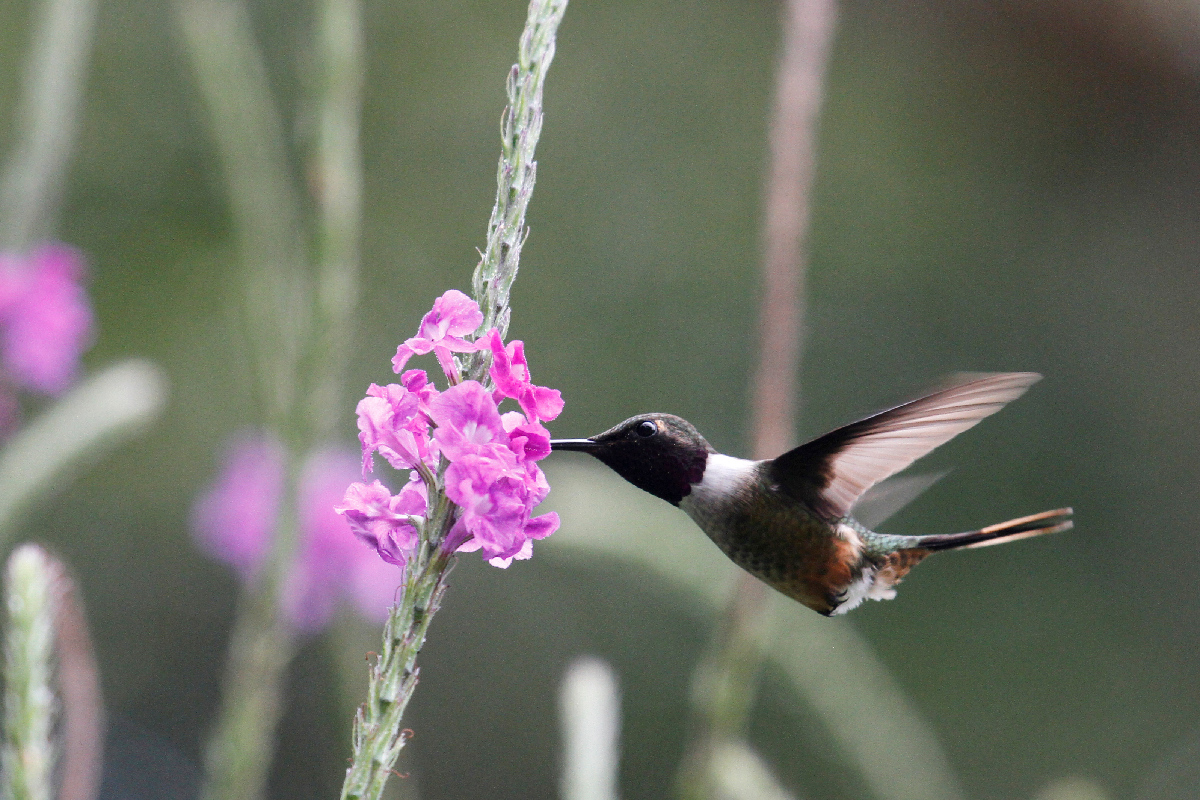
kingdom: Animalia
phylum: Chordata
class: Aves
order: Apodiformes
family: Trochilidae
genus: Calliphlox
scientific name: Calliphlox bryantae
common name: Magenta-throated woodstar
